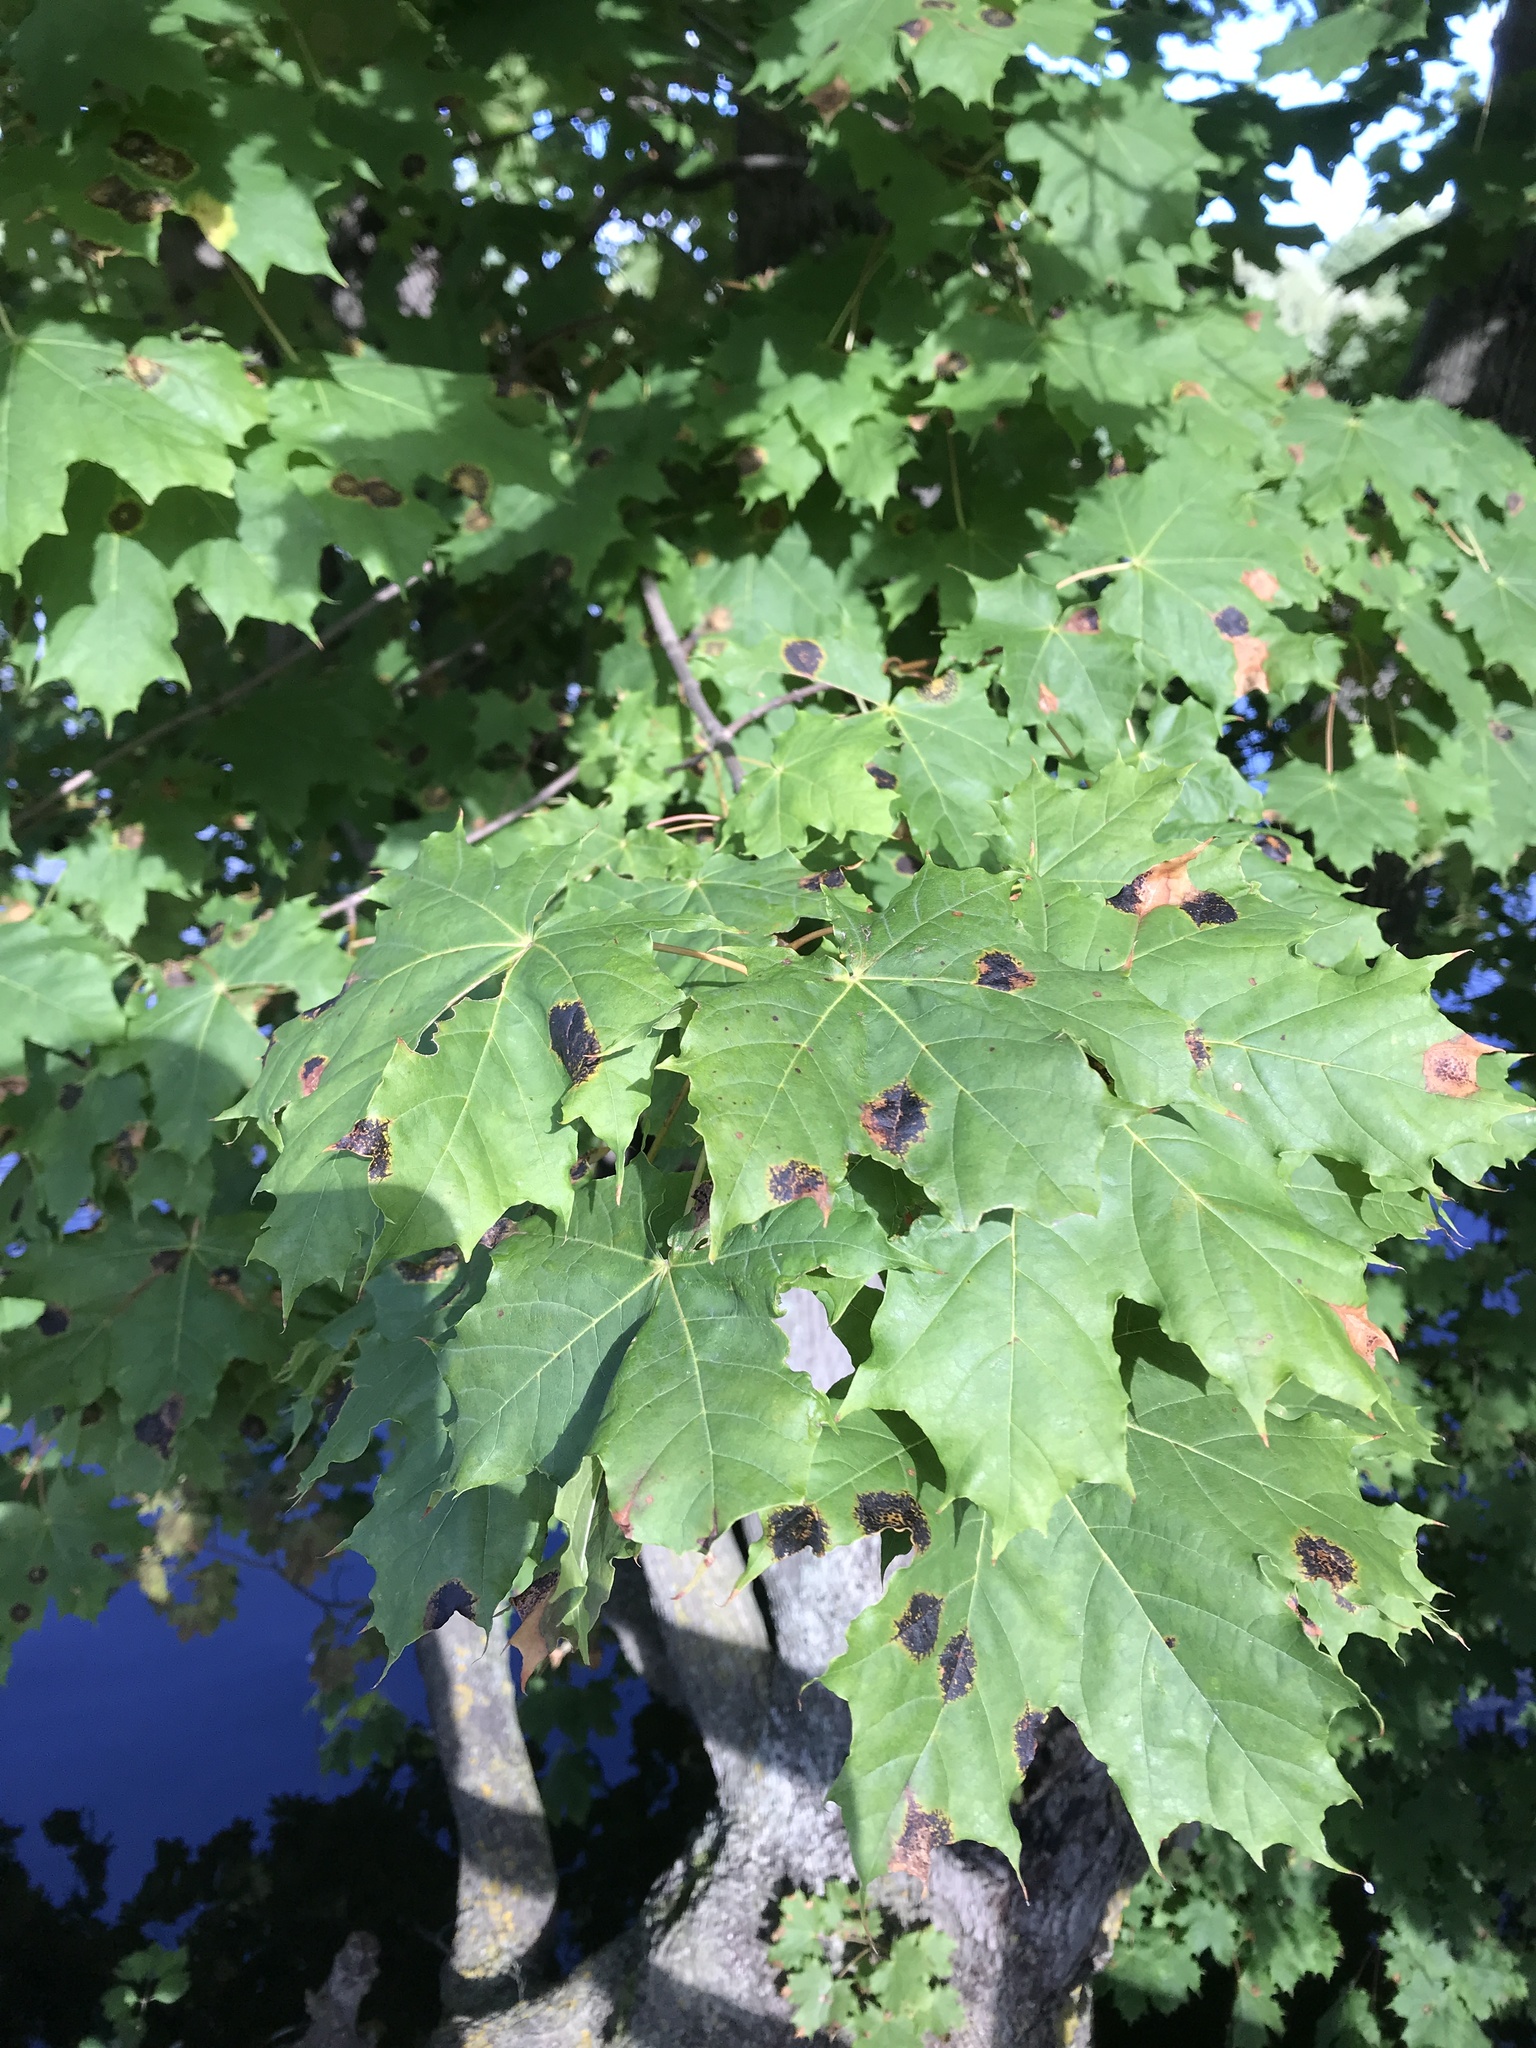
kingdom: Plantae
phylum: Tracheophyta
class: Magnoliopsida
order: Sapindales
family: Sapindaceae
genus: Acer
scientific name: Acer platanoides
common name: Norway maple
